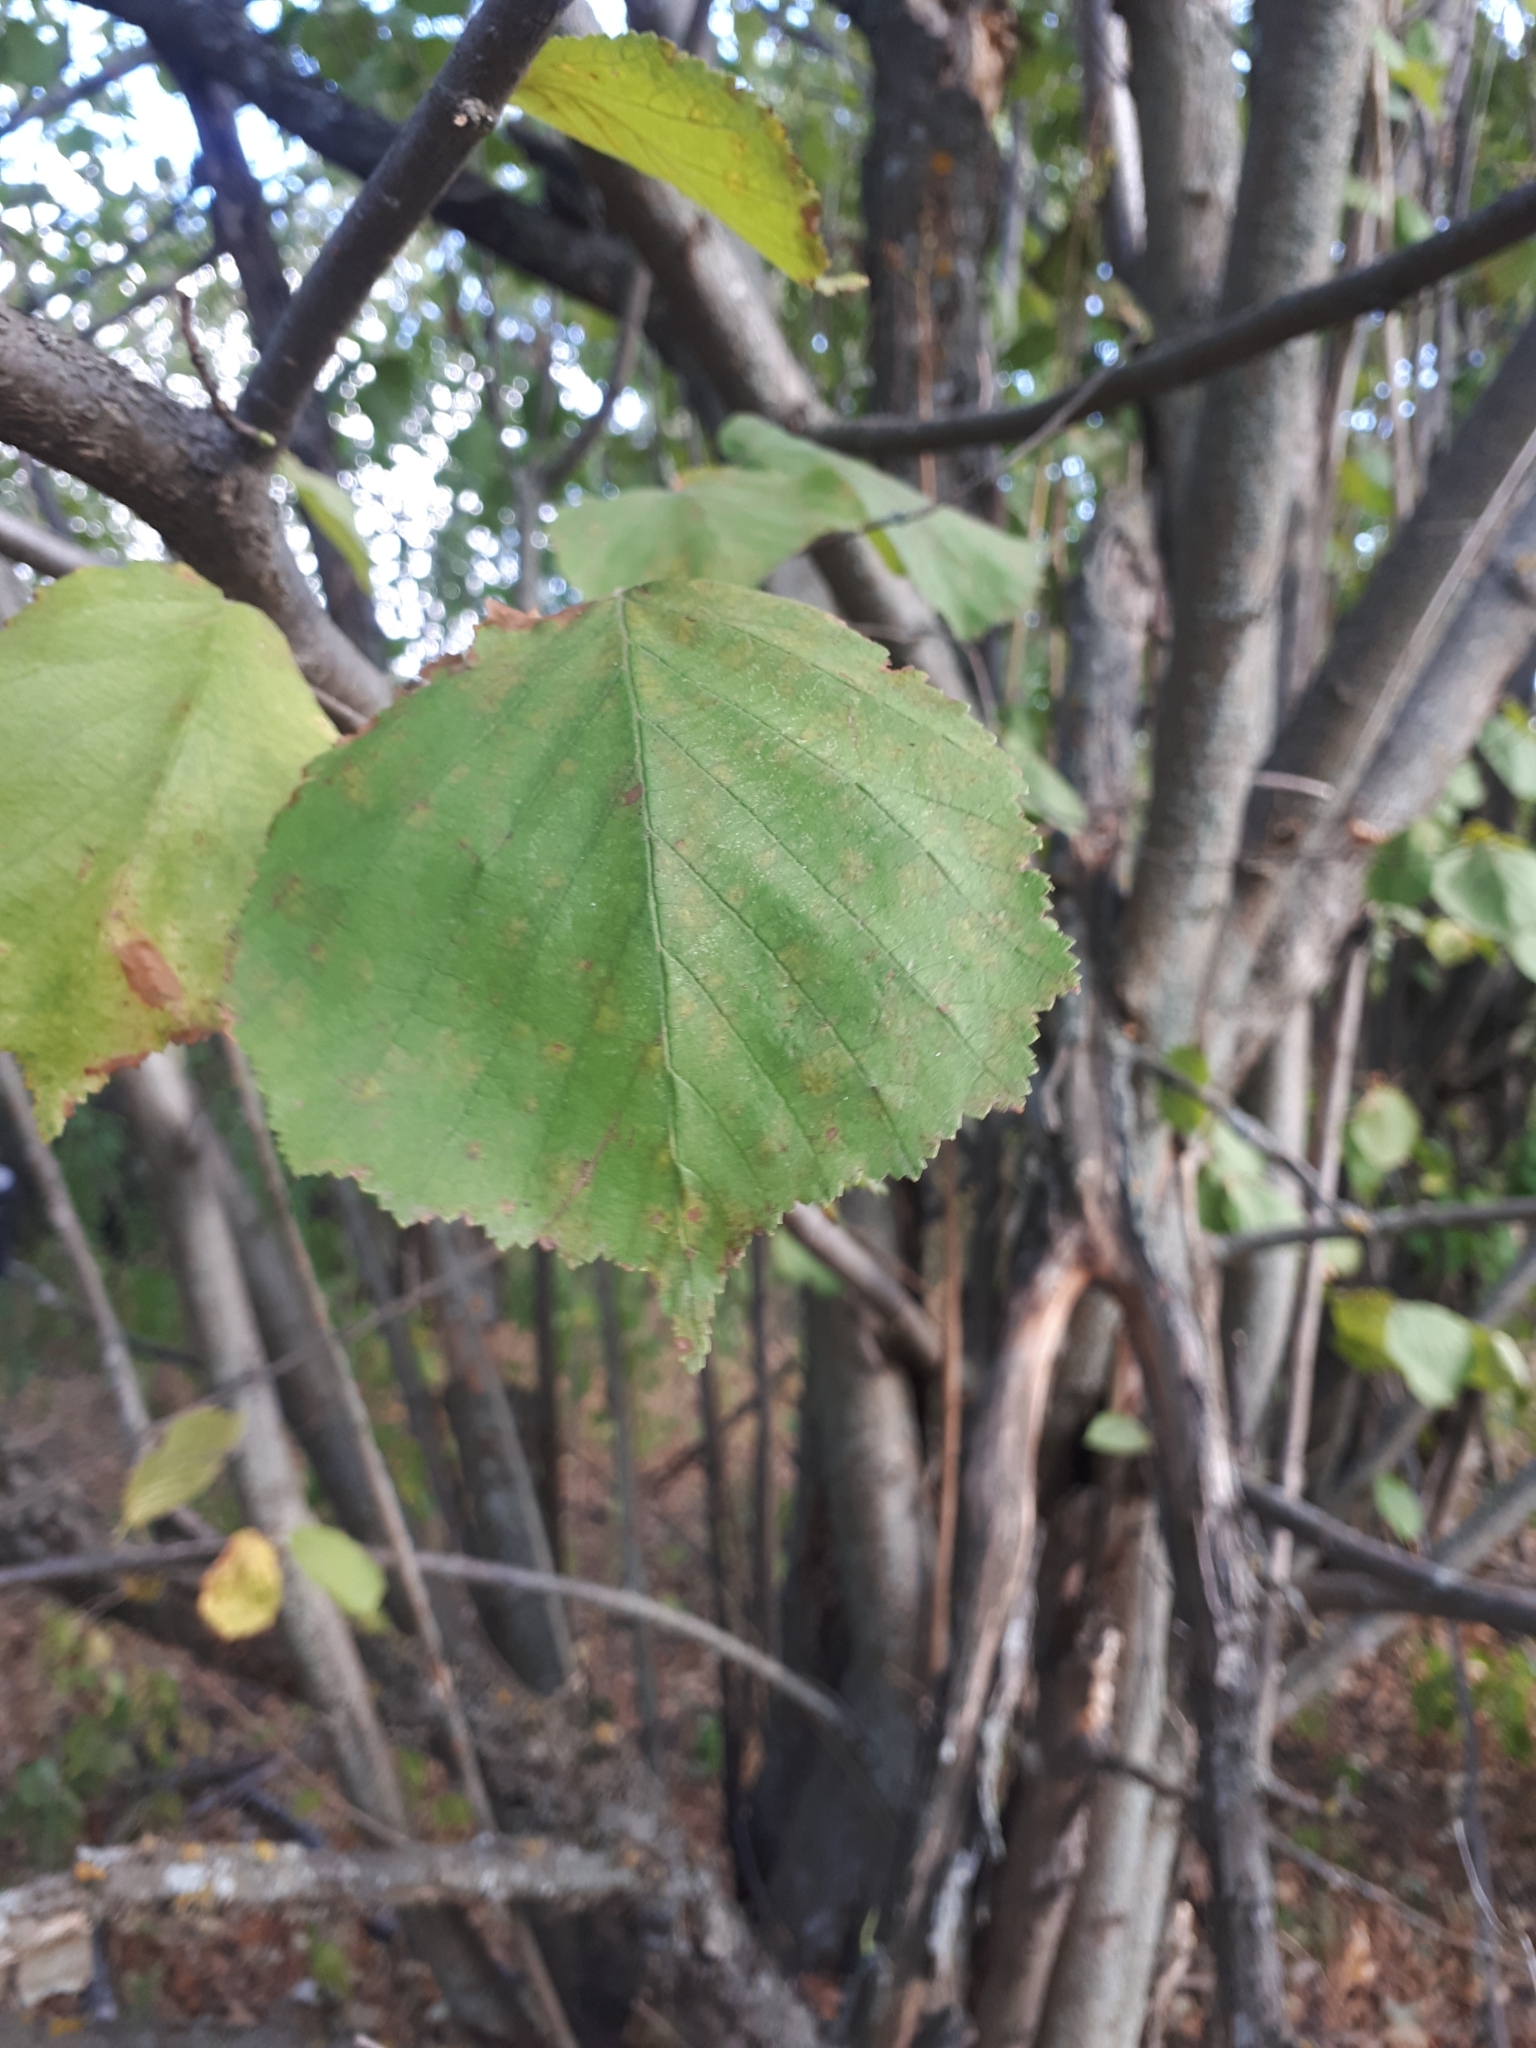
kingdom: Plantae
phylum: Tracheophyta
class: Magnoliopsida
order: Fagales
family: Betulaceae
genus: Corylus
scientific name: Corylus avellana
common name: European hazel
